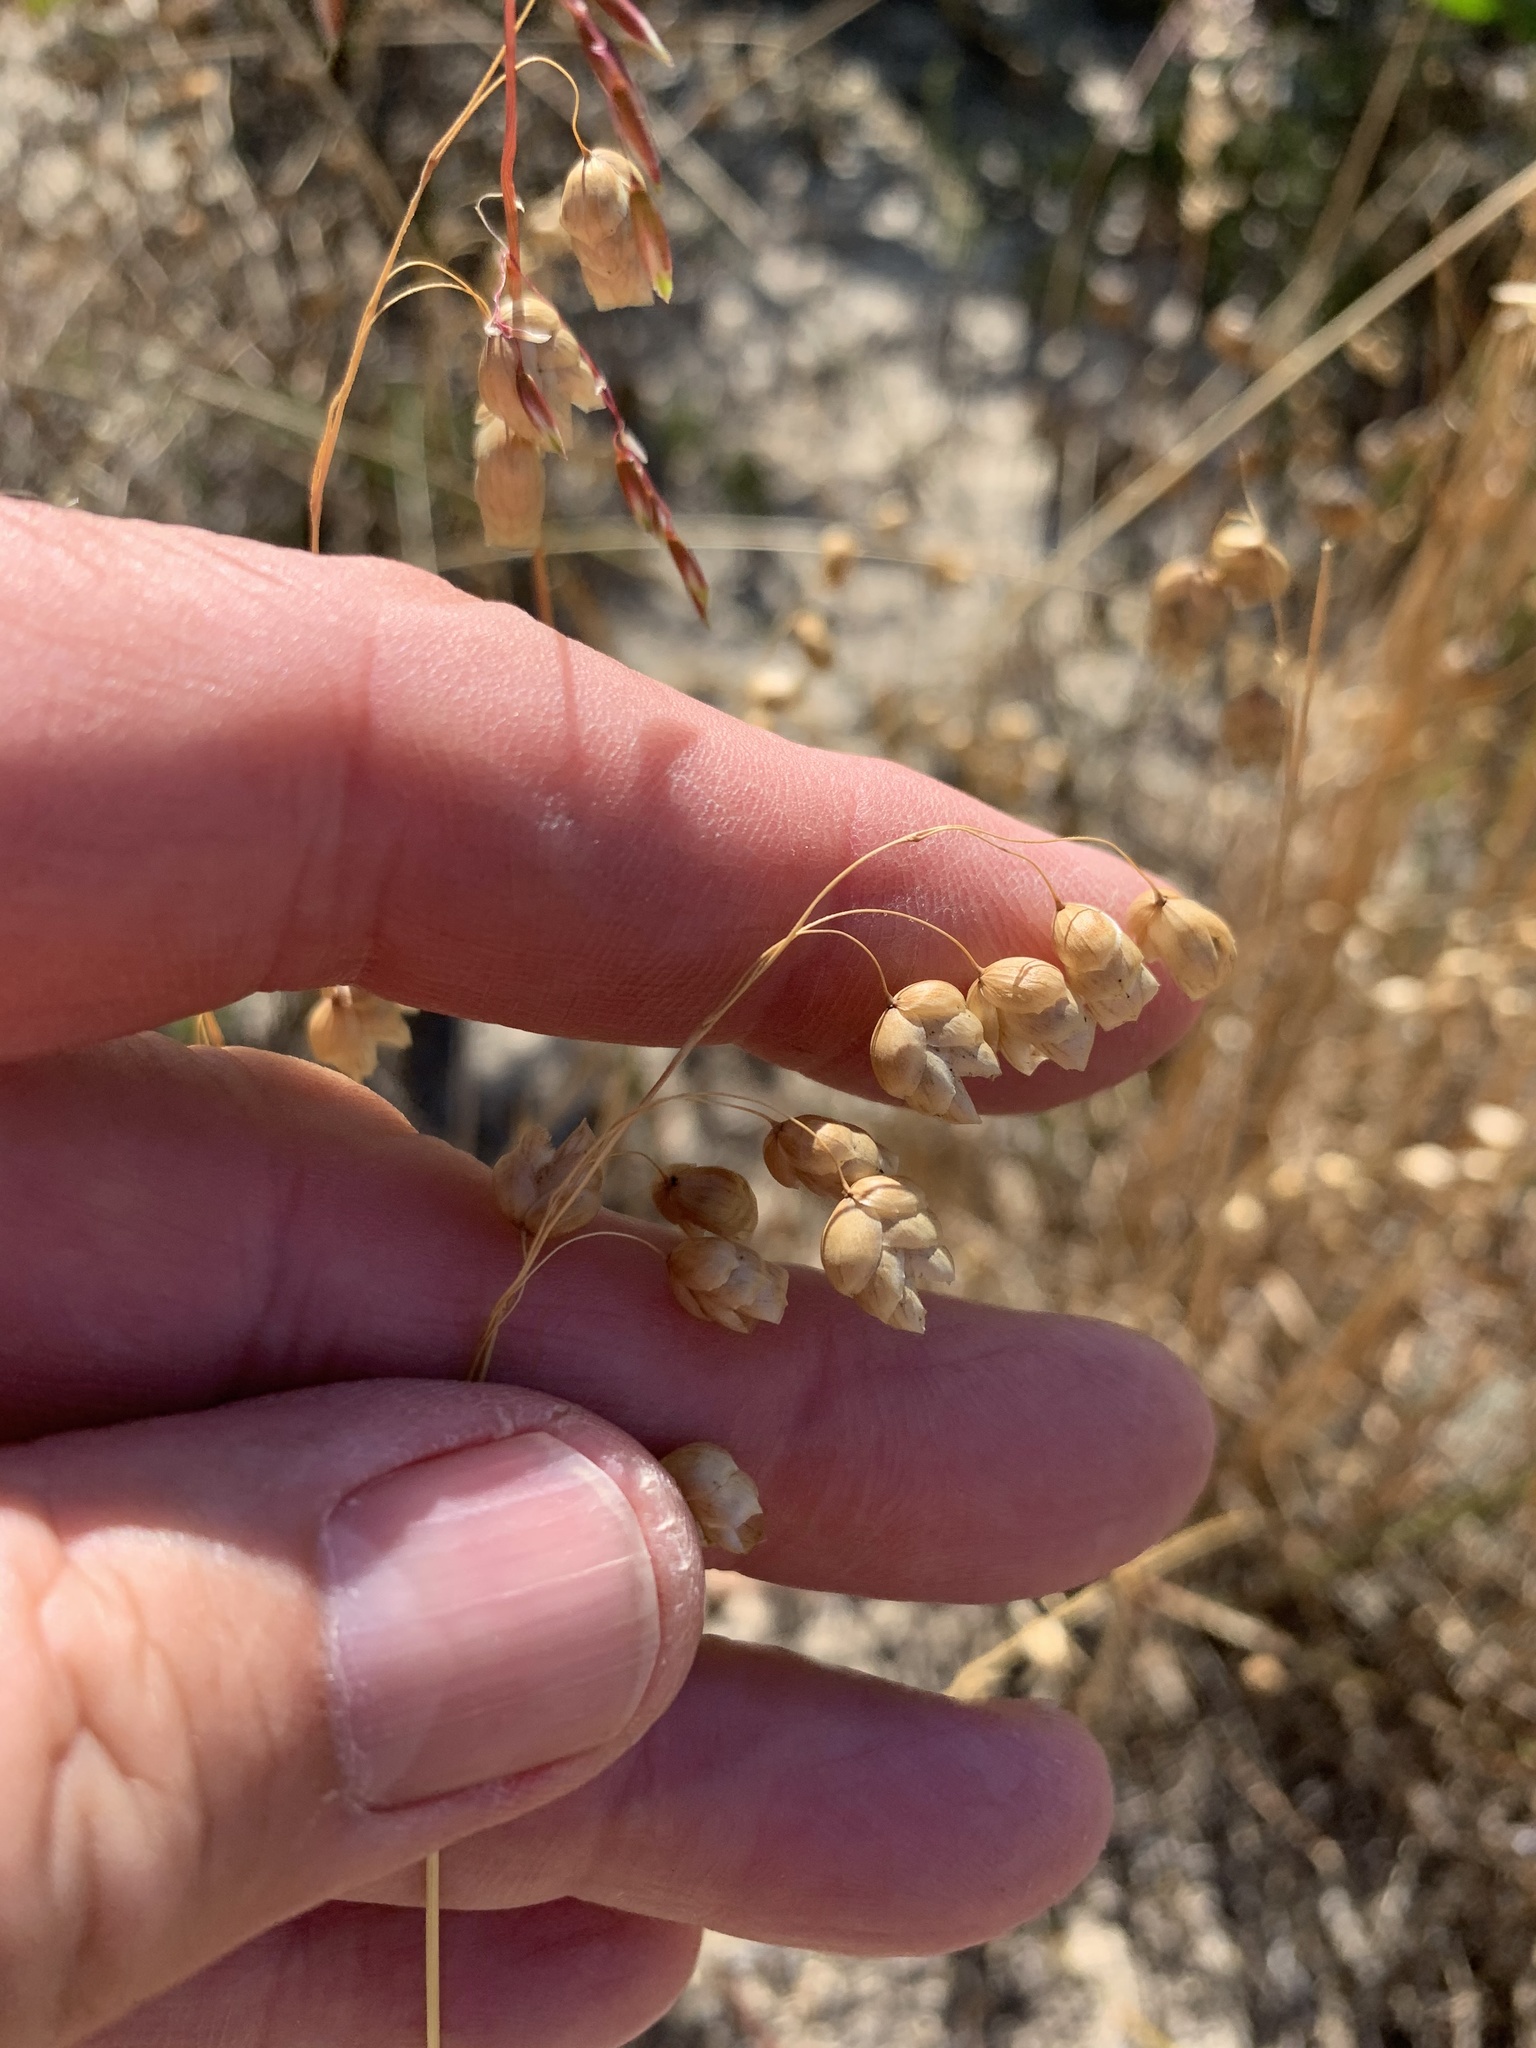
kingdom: Plantae
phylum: Tracheophyta
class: Liliopsida
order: Poales
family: Poaceae
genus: Briza
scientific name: Briza maxima
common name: Big quakinggrass
